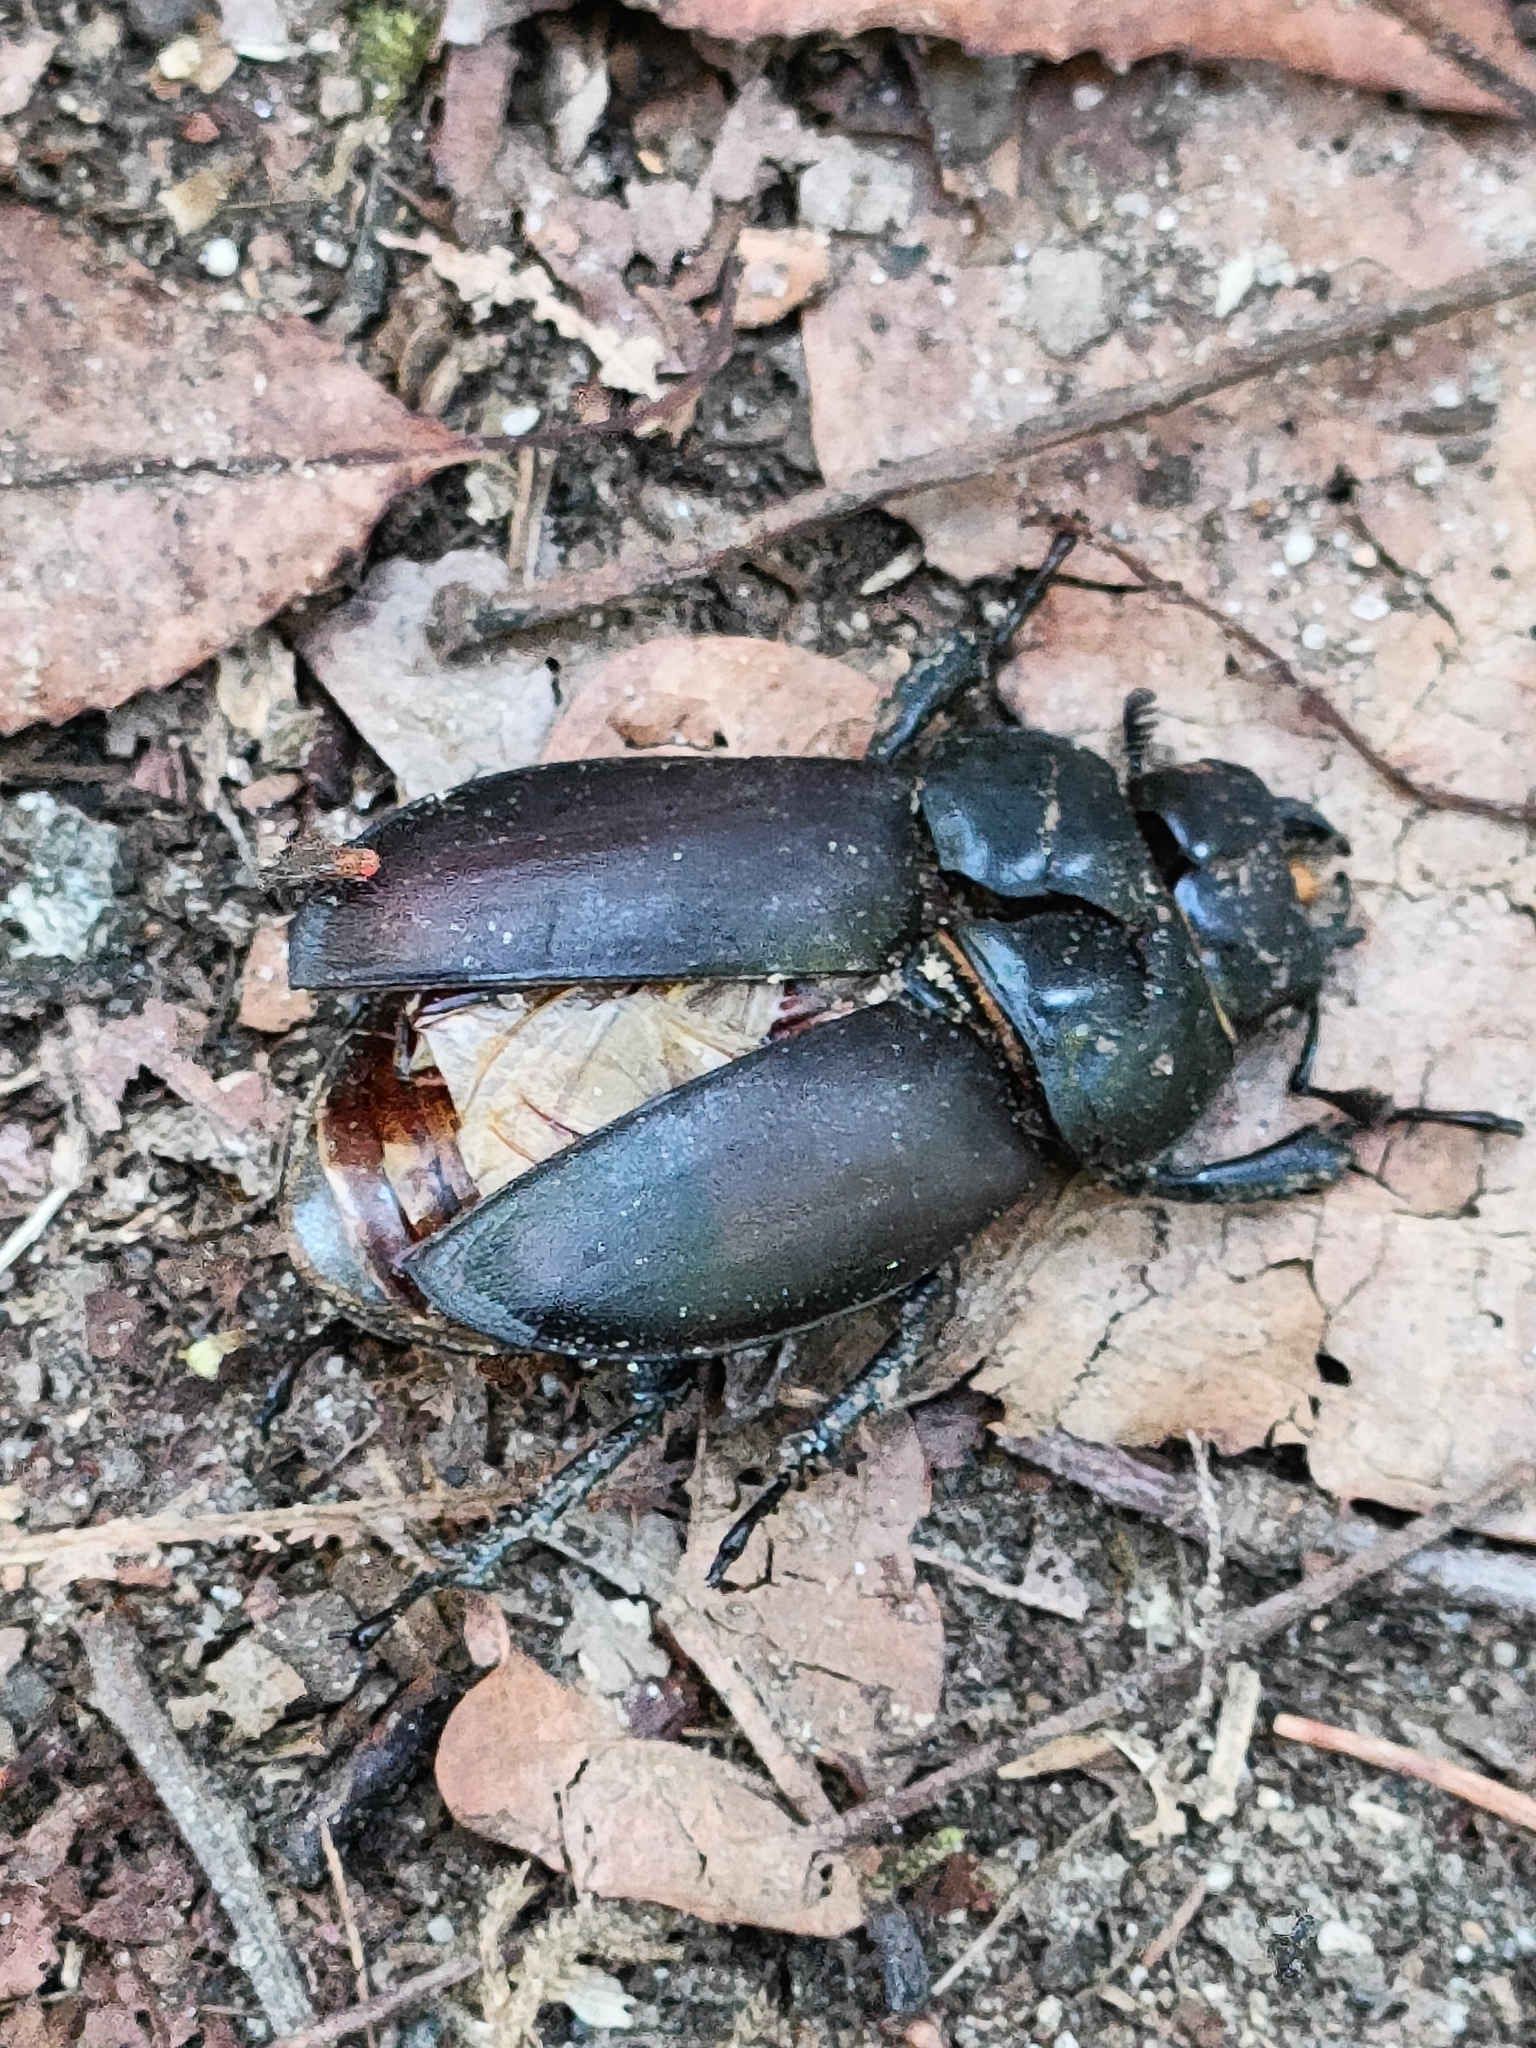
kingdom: Animalia
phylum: Arthropoda
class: Insecta
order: Coleoptera
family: Lucanidae
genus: Lucanus
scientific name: Lucanus cervus
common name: Stag beetle
